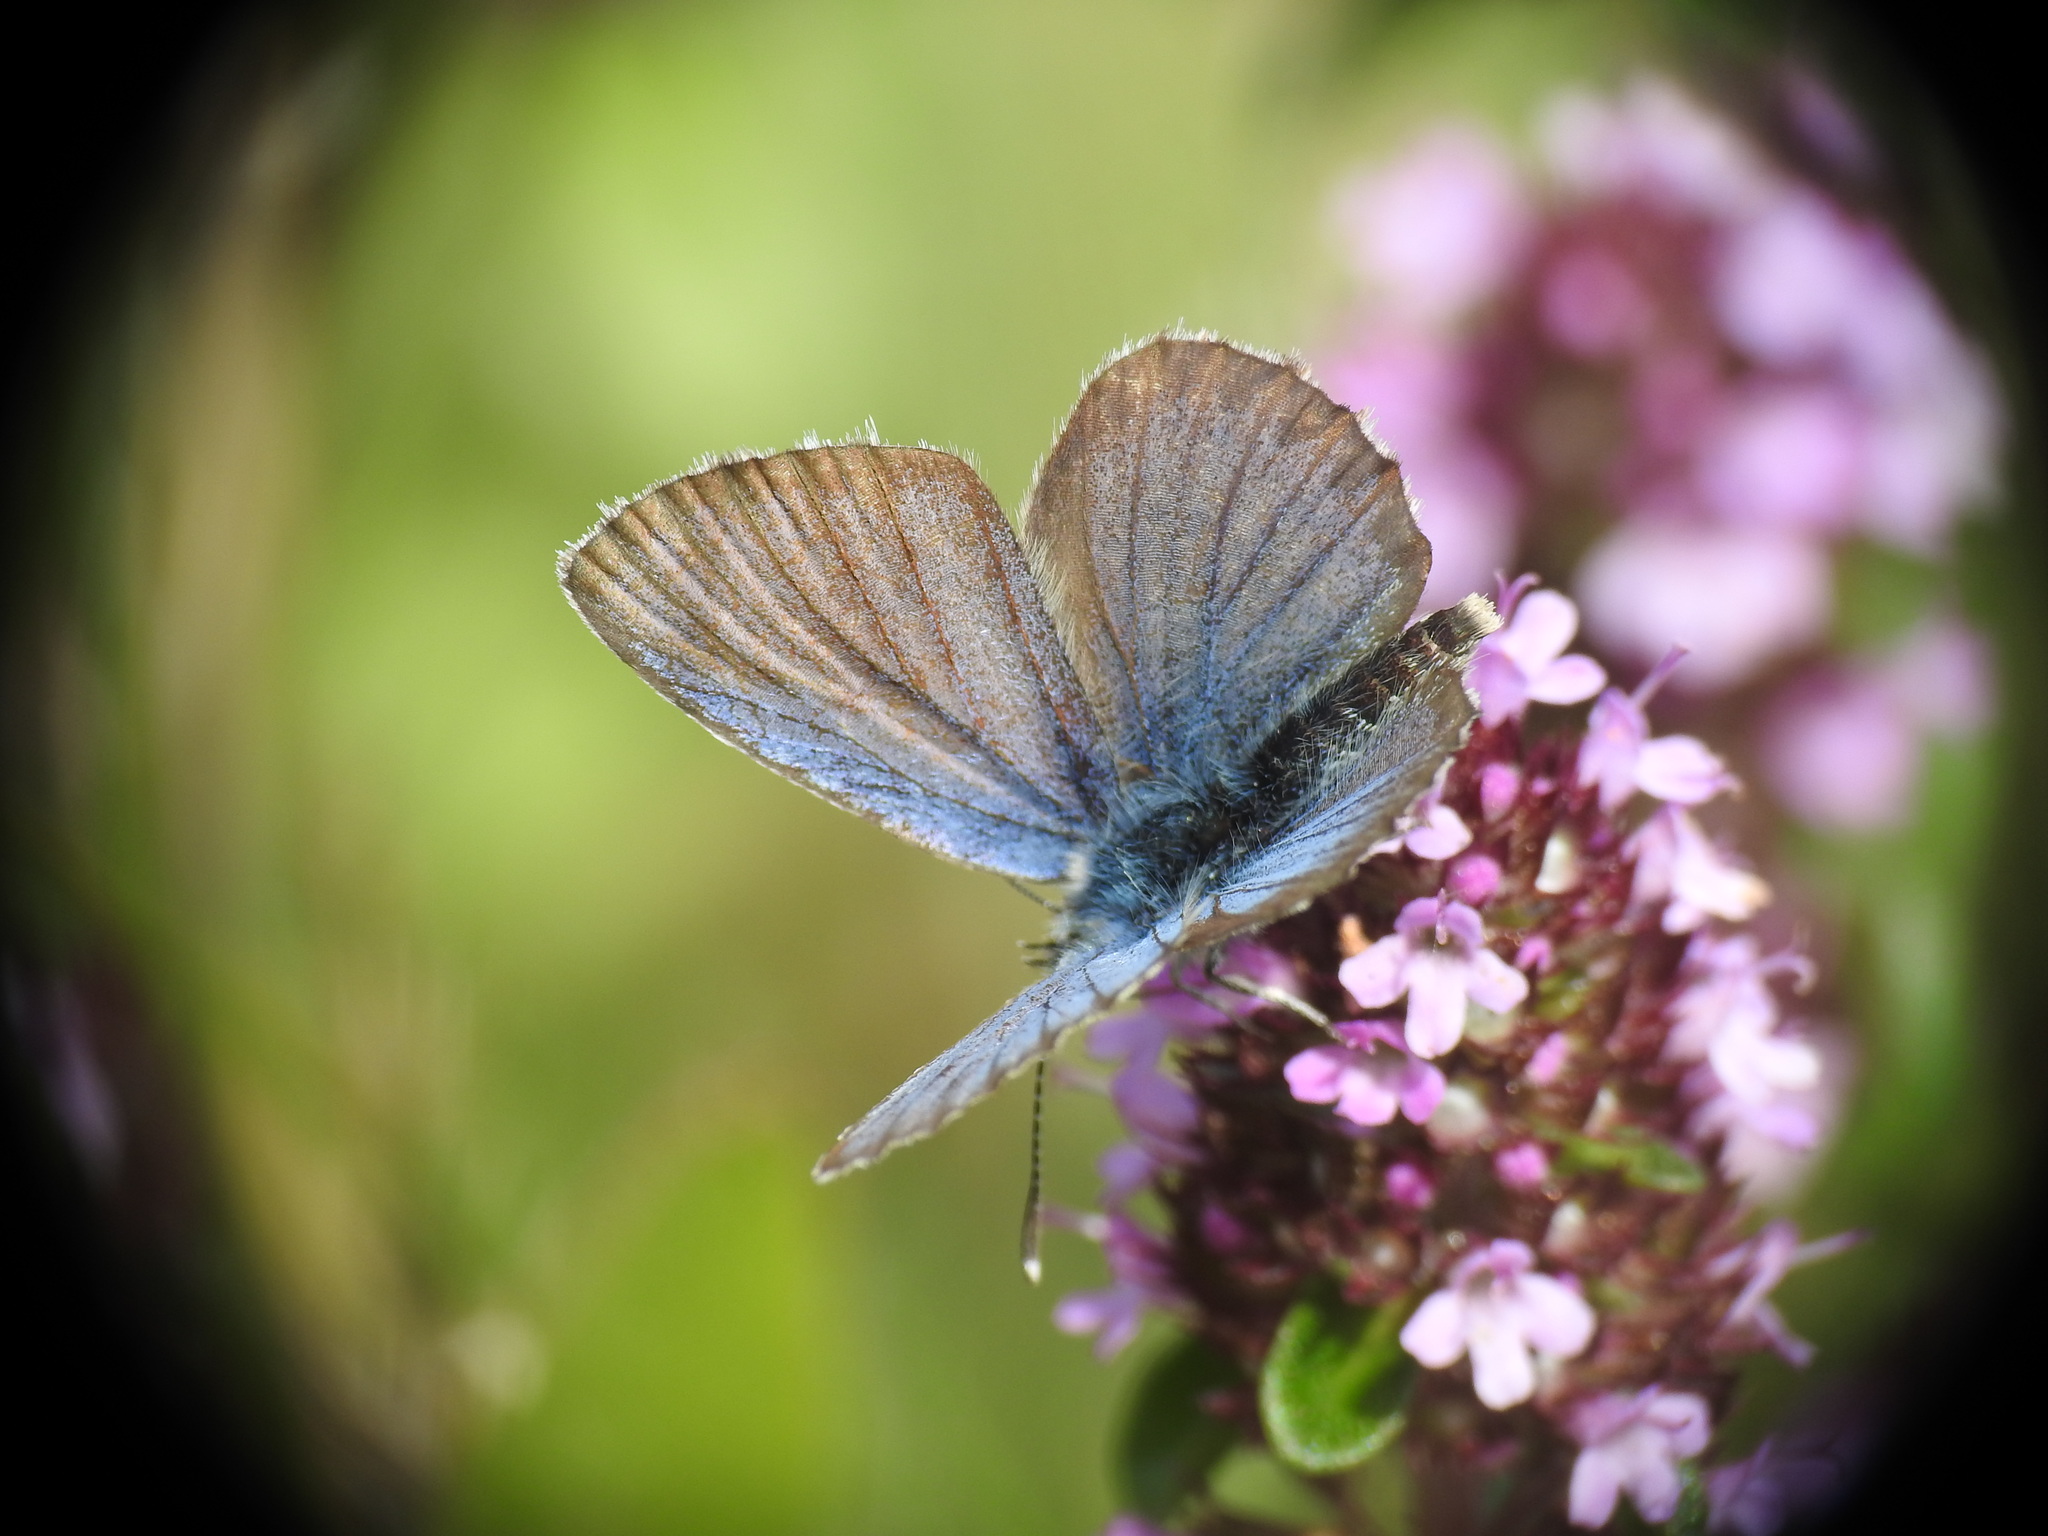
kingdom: Animalia
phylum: Arthropoda
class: Insecta
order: Lepidoptera
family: Lycaenidae
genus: Plebejus
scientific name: Plebejus argus
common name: Silver-studded blue
